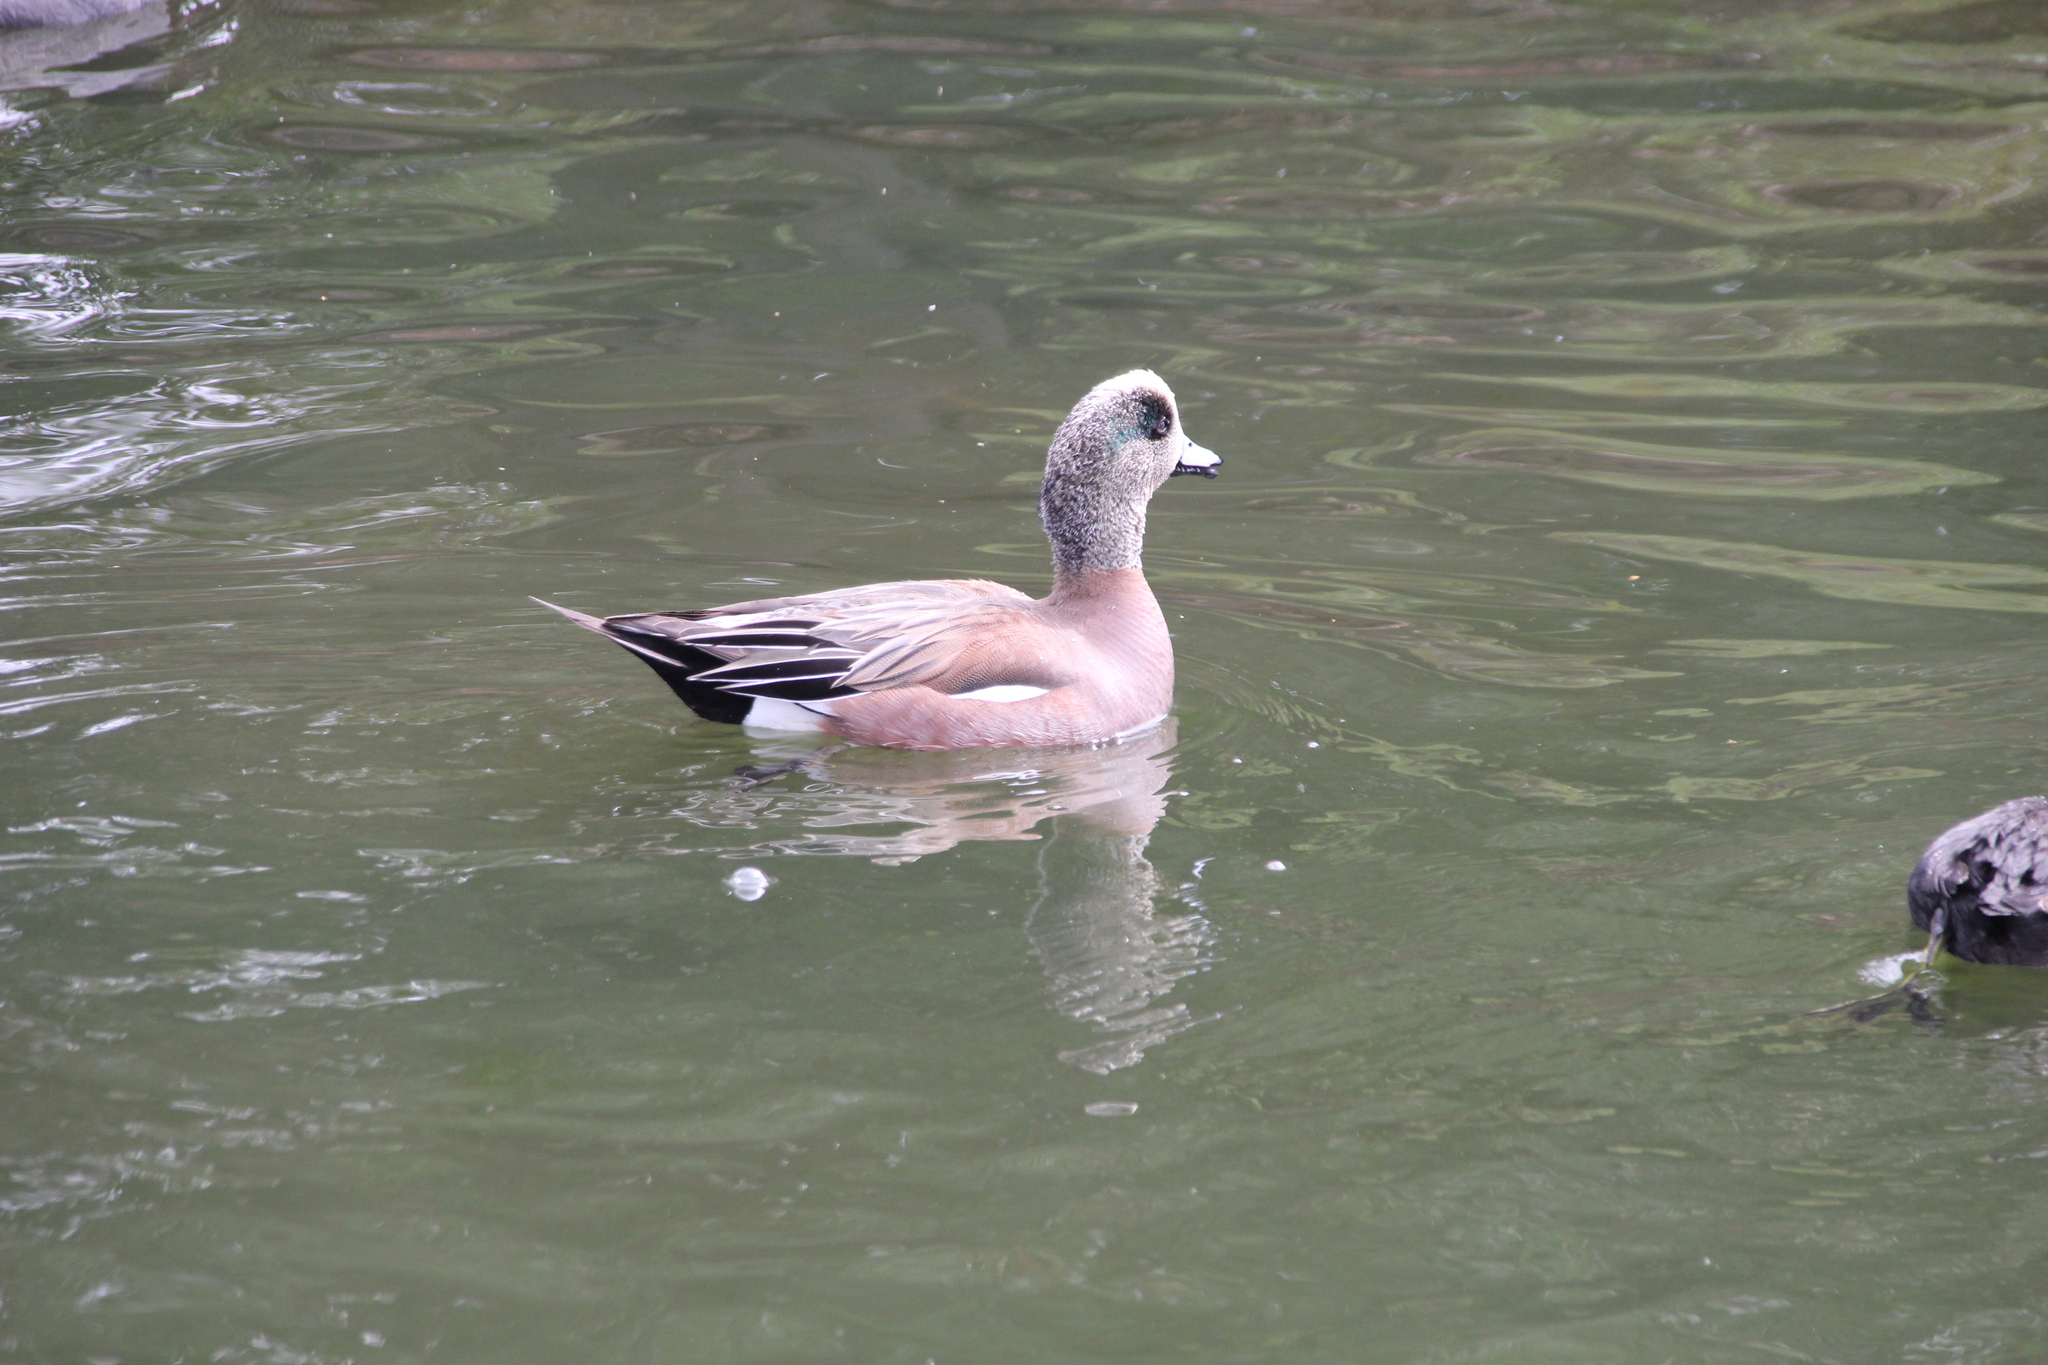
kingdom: Animalia
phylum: Chordata
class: Aves
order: Anseriformes
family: Anatidae
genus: Mareca
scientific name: Mareca americana
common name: American wigeon
